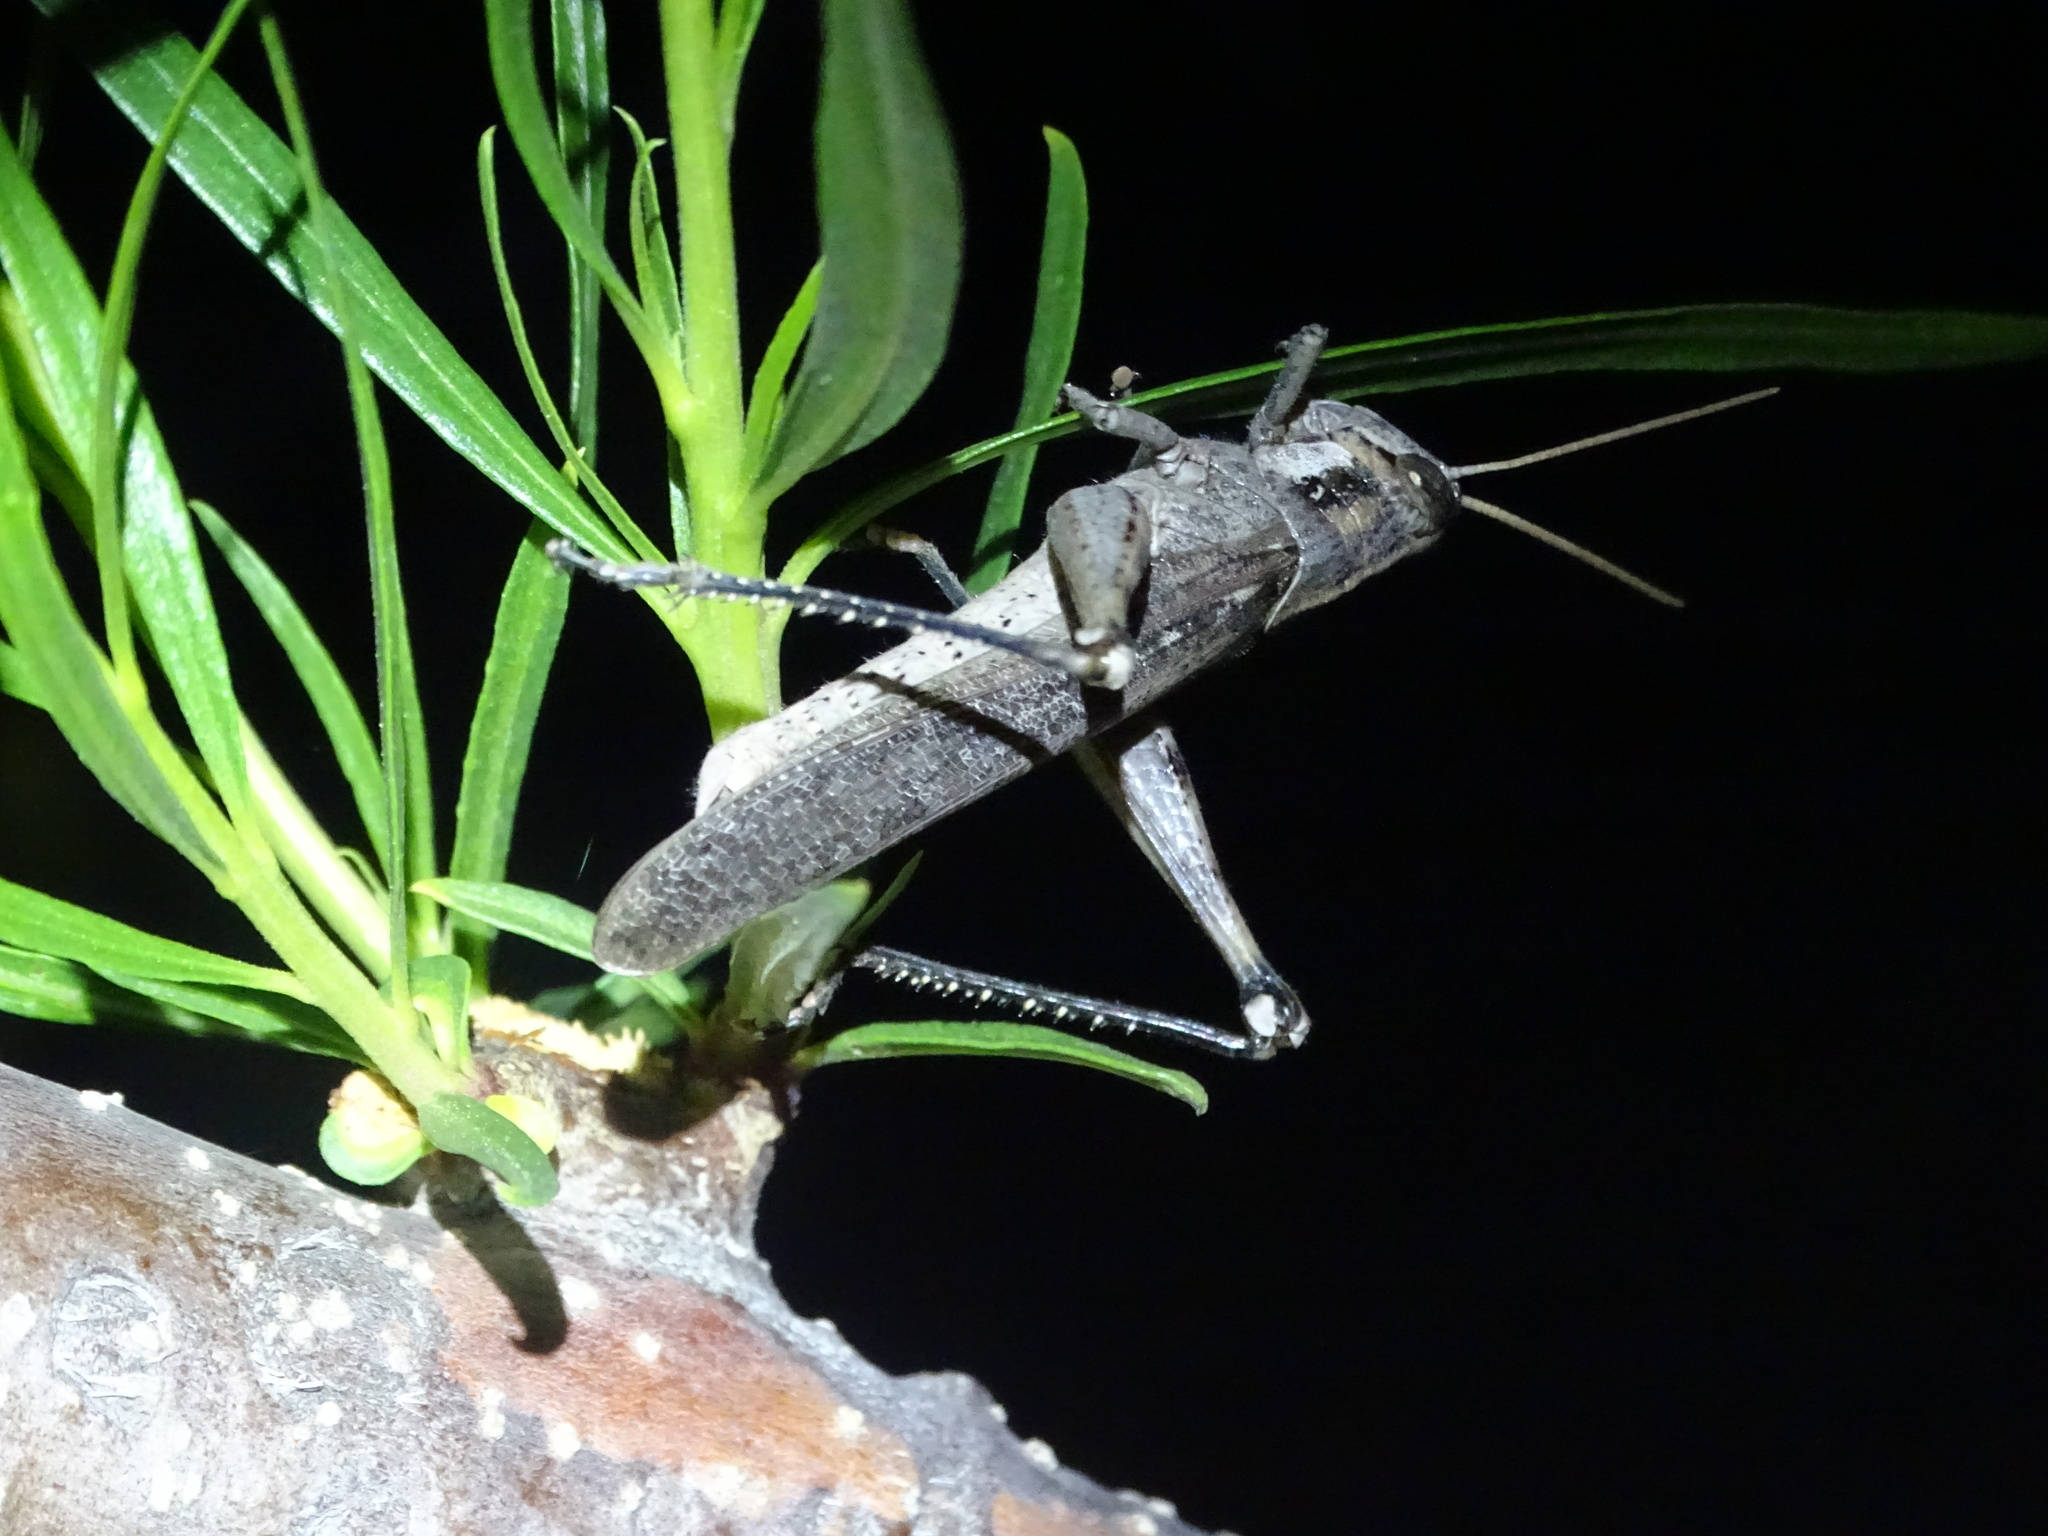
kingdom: Animalia
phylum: Arthropoda
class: Insecta
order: Orthoptera
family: Acrididae
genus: Schistocerca
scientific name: Schistocerca nitens
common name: Vagrant grasshopper
